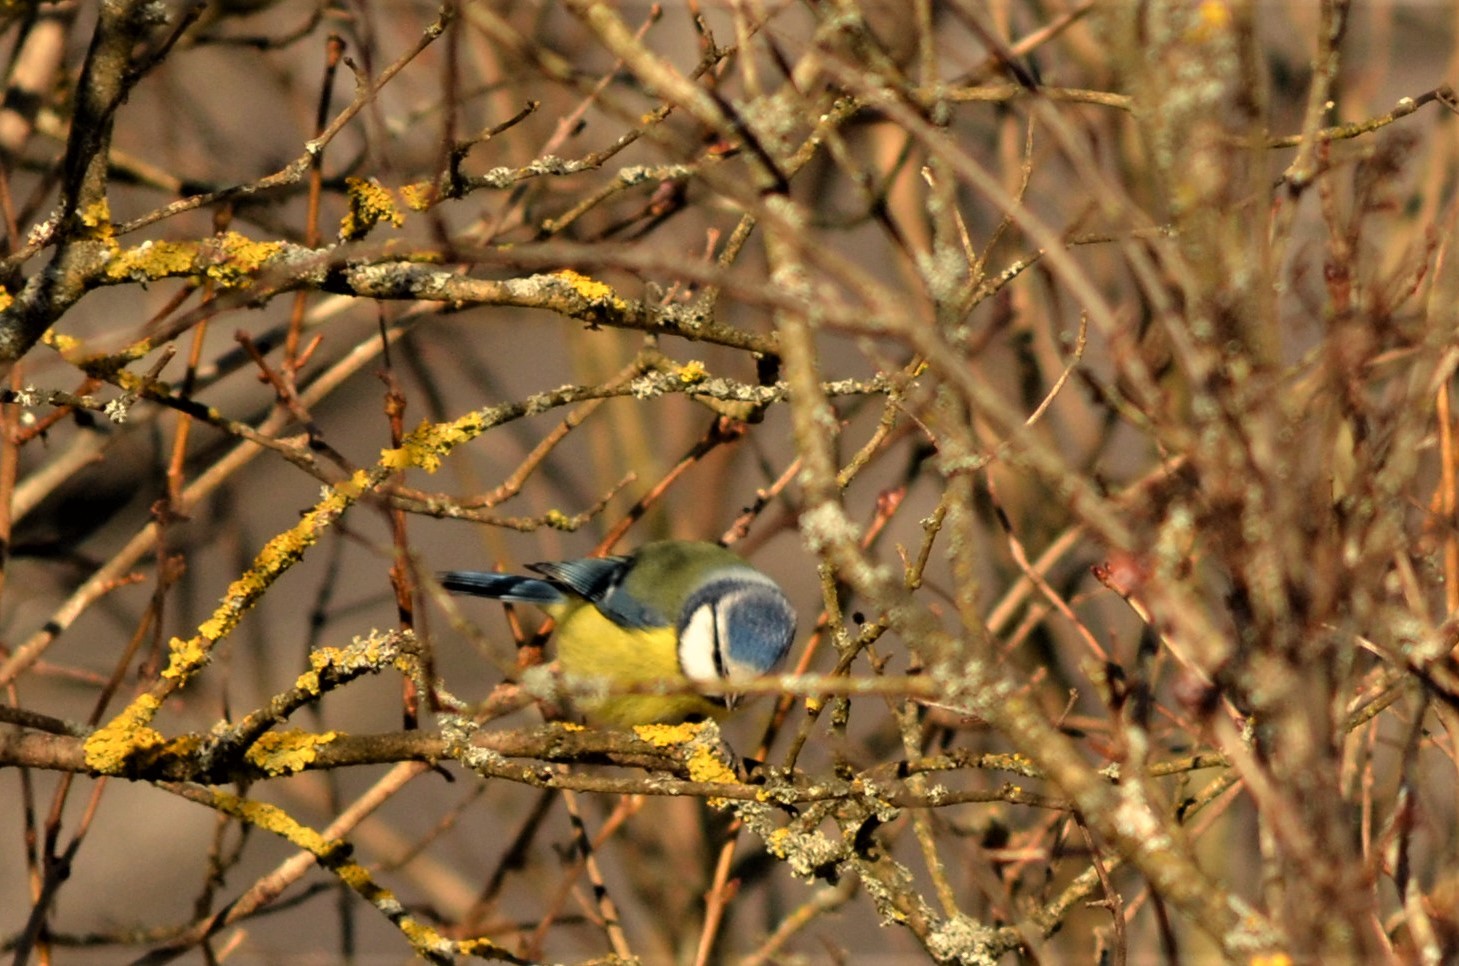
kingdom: Animalia
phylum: Chordata
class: Aves
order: Passeriformes
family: Paridae
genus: Cyanistes
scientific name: Cyanistes caeruleus
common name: Eurasian blue tit
